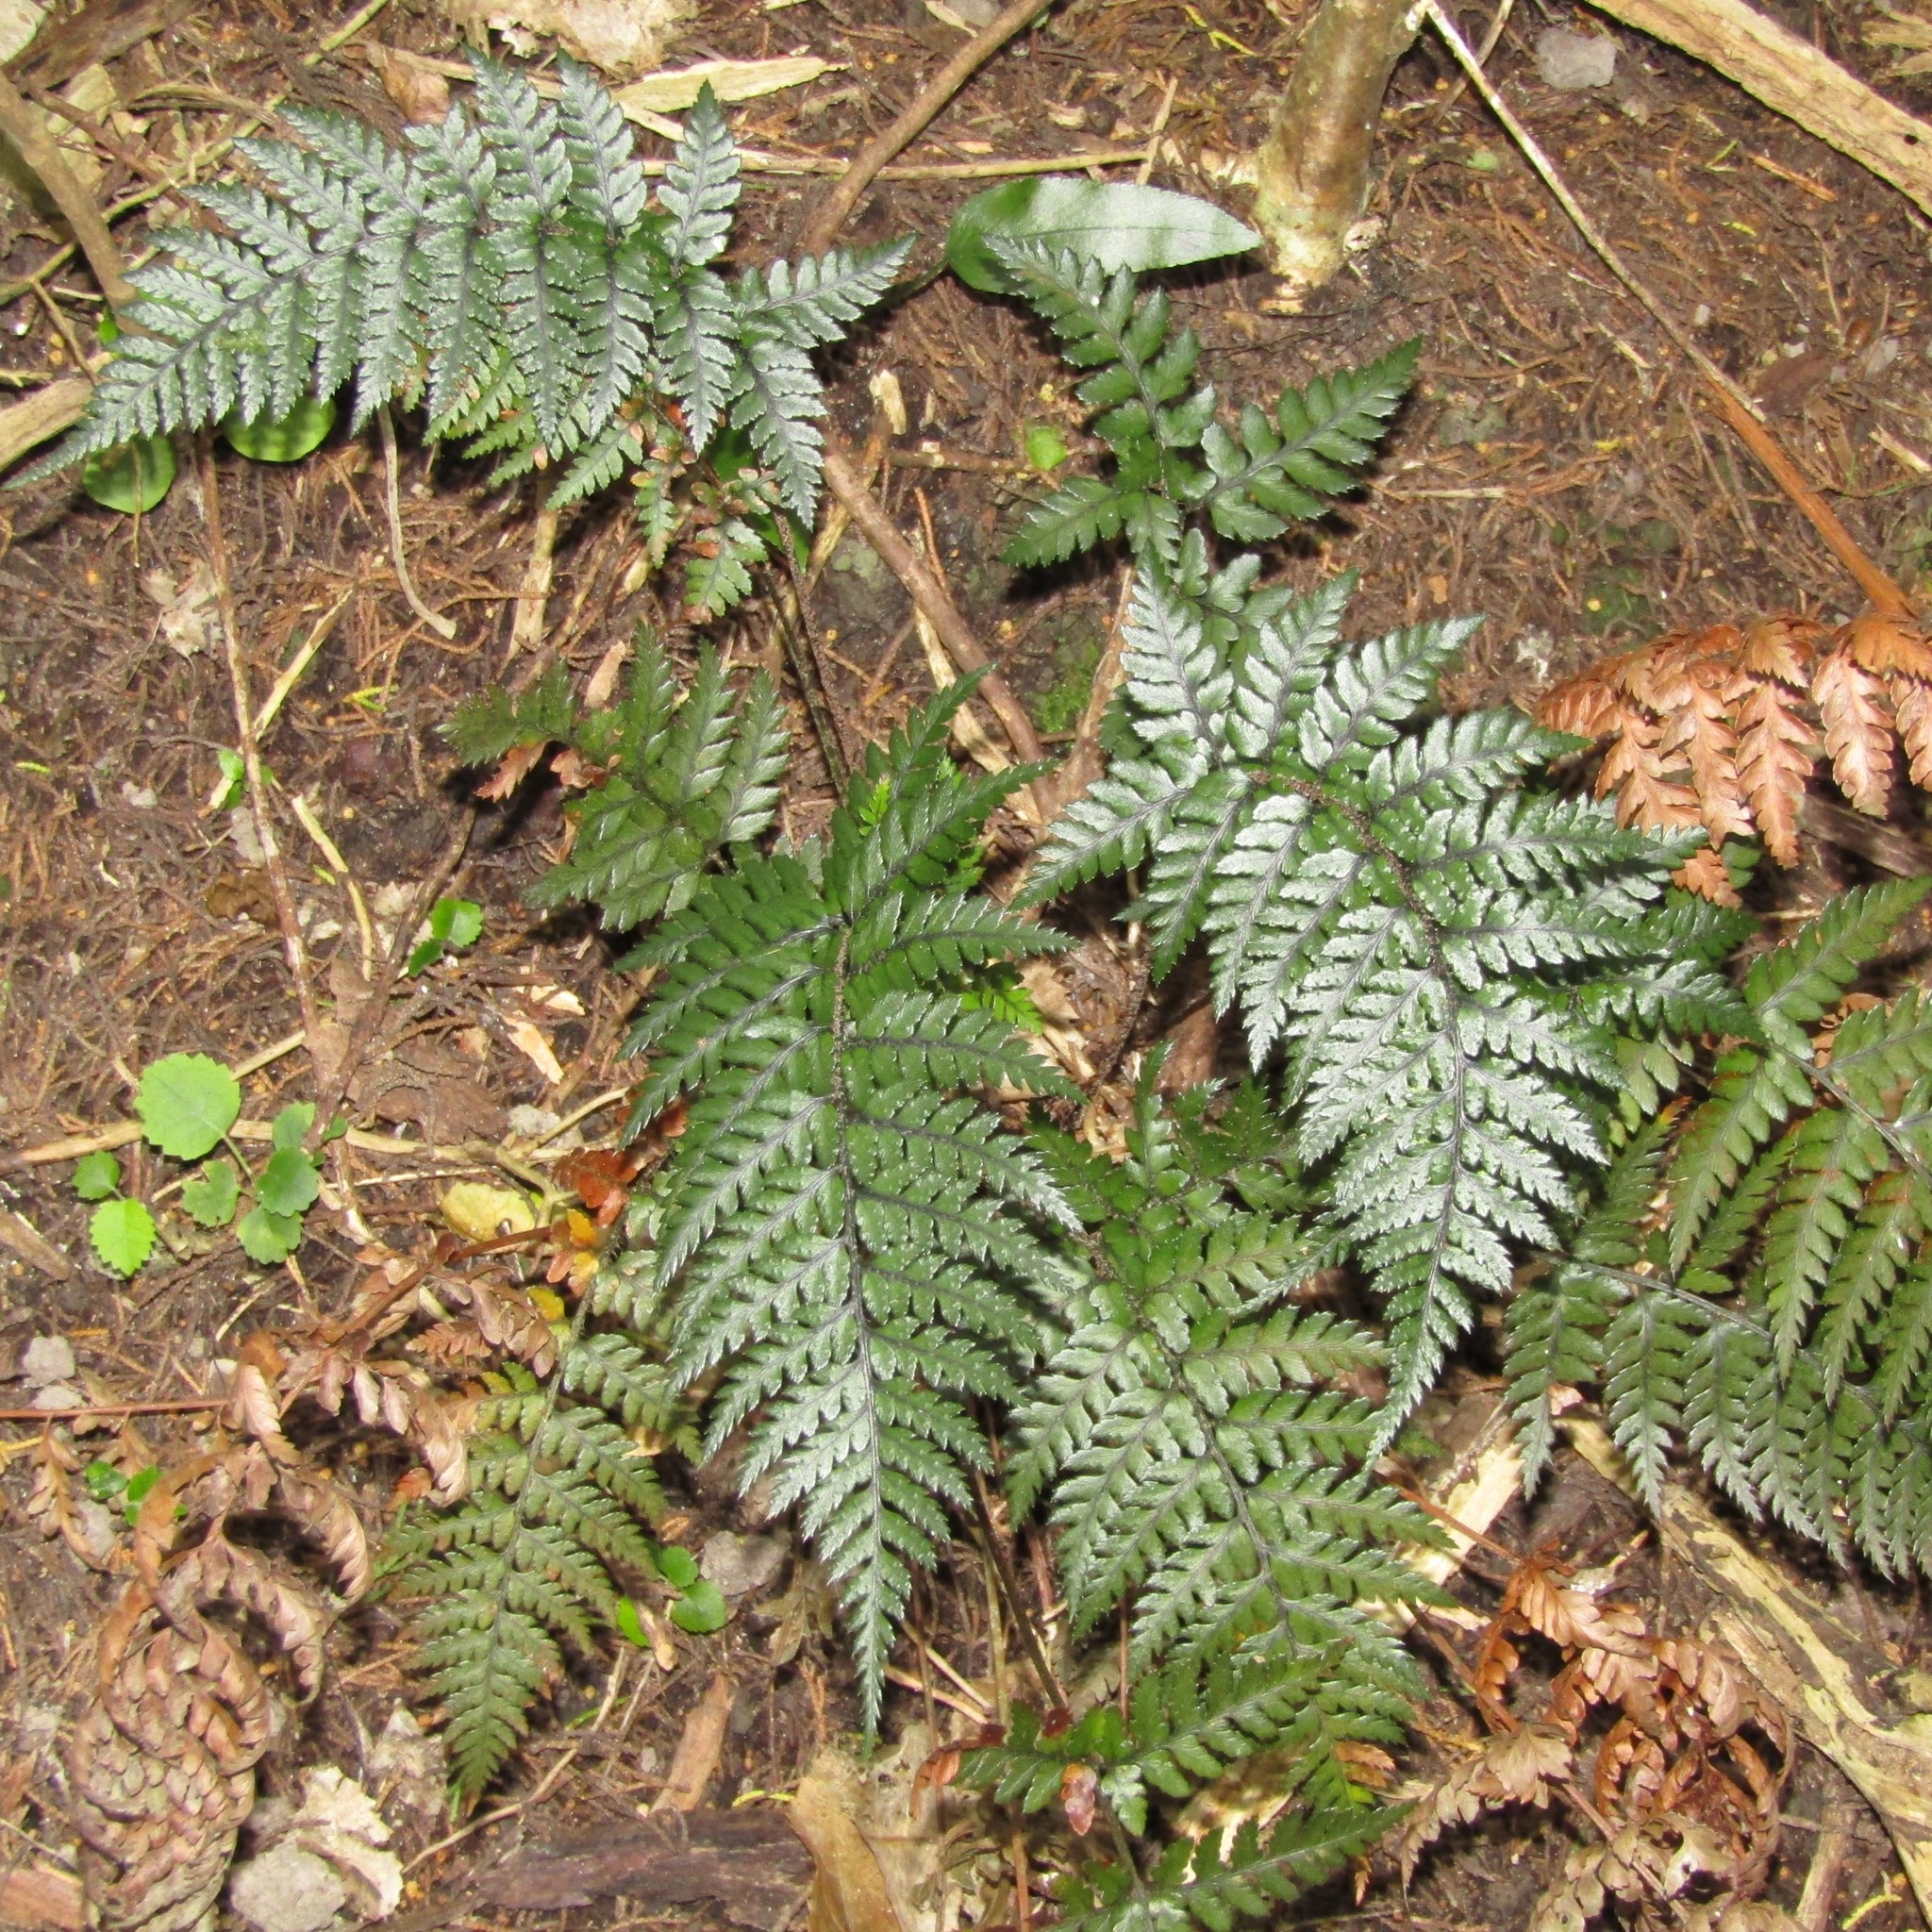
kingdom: Plantae
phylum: Tracheophyta
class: Polypodiopsida
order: Polypodiales
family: Dryopteridaceae
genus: Polystichum
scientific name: Polystichum neozelandicum
